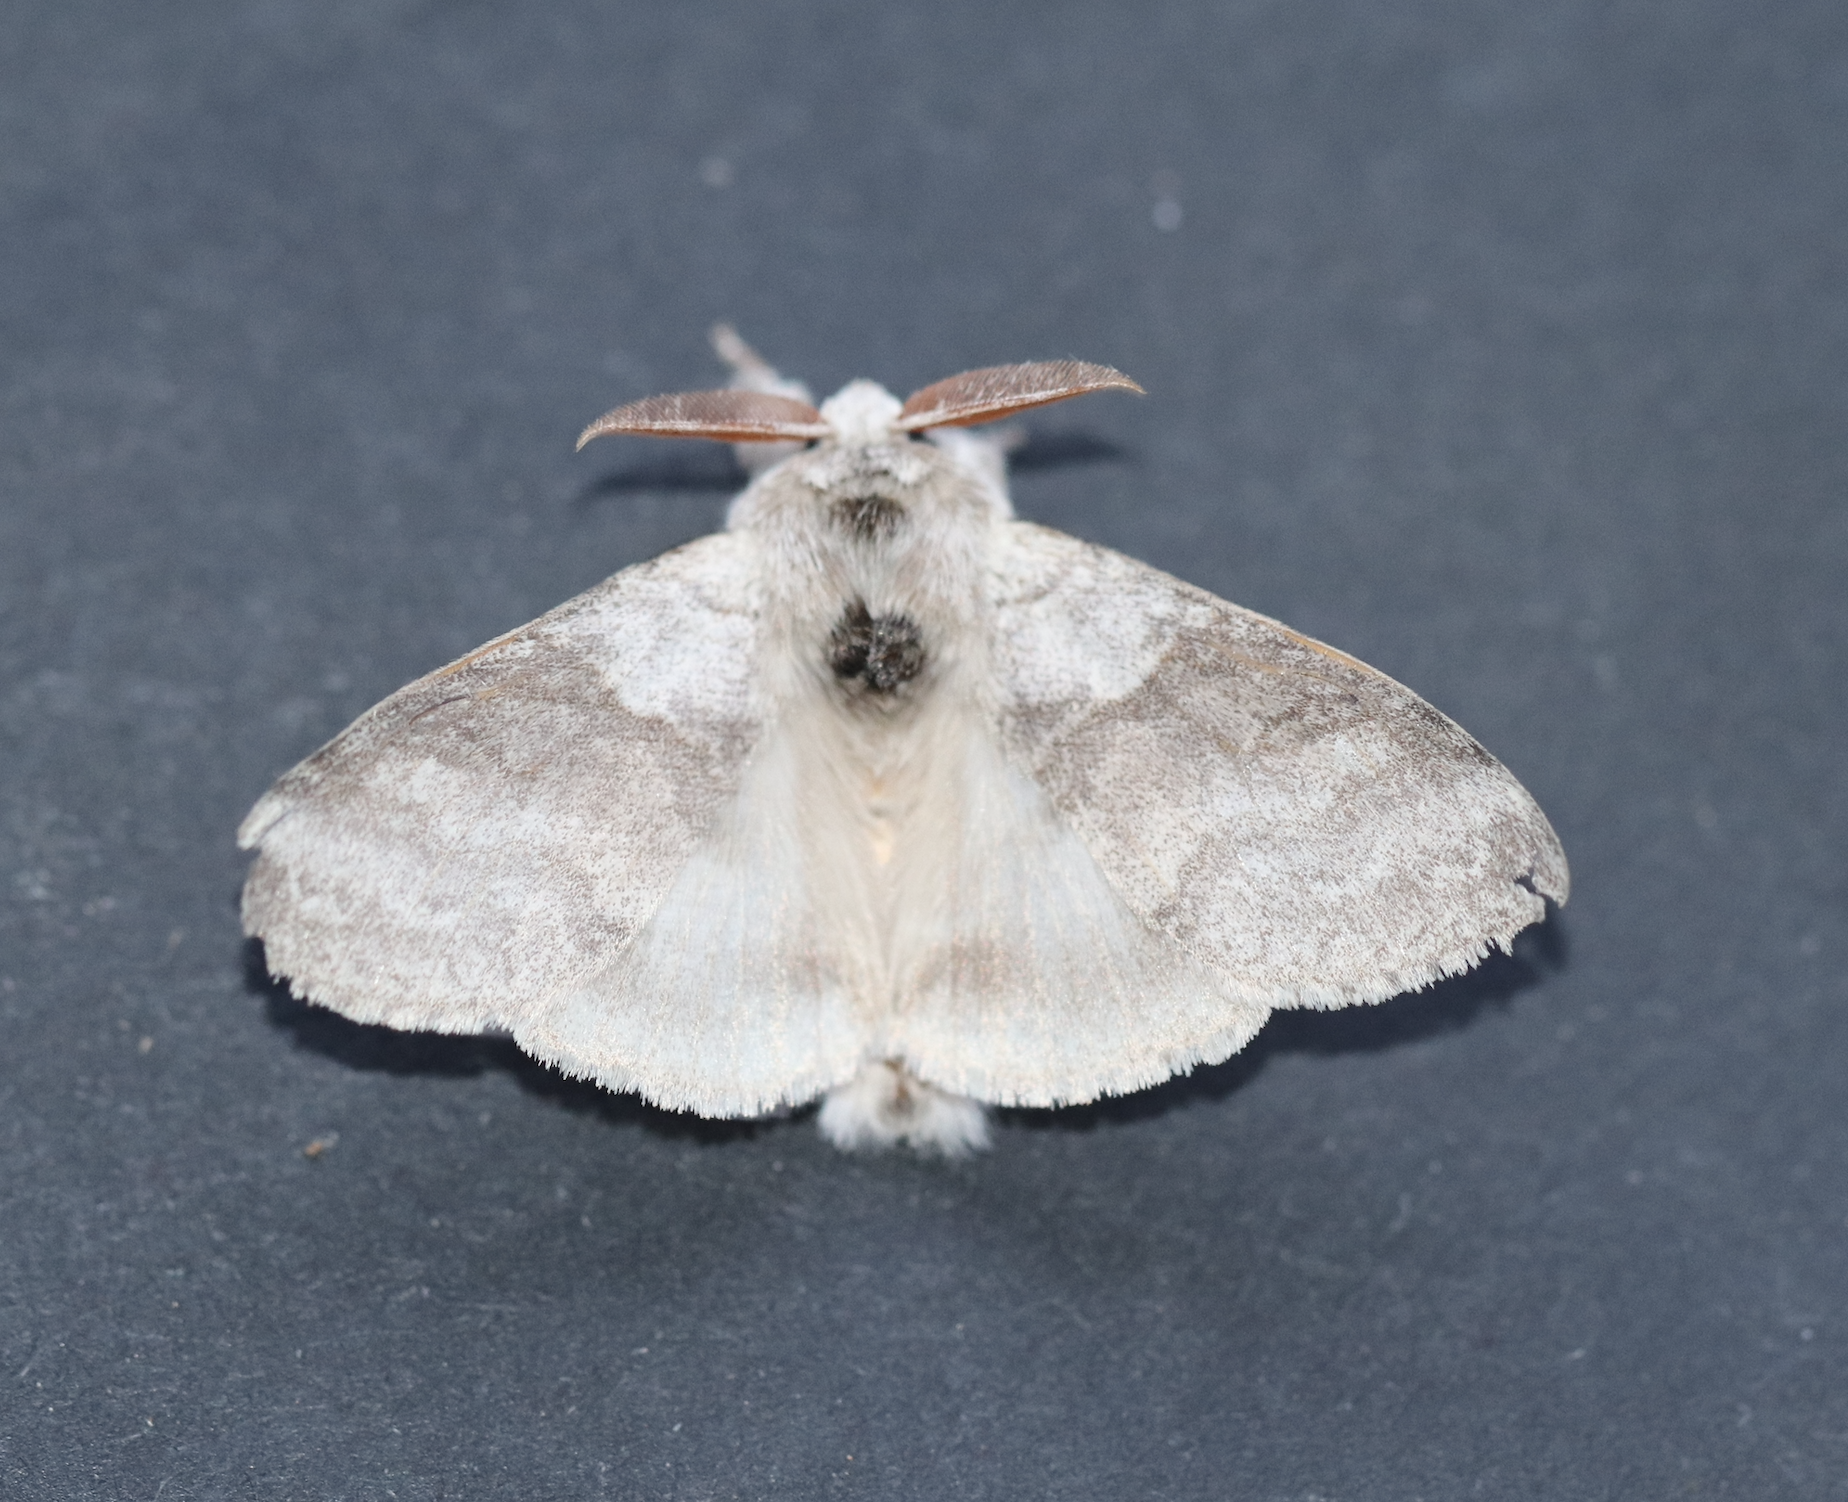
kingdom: Animalia
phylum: Arthropoda
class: Insecta
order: Lepidoptera
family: Erebidae
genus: Calliteara
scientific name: Calliteara pudibunda
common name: Pale tussock
